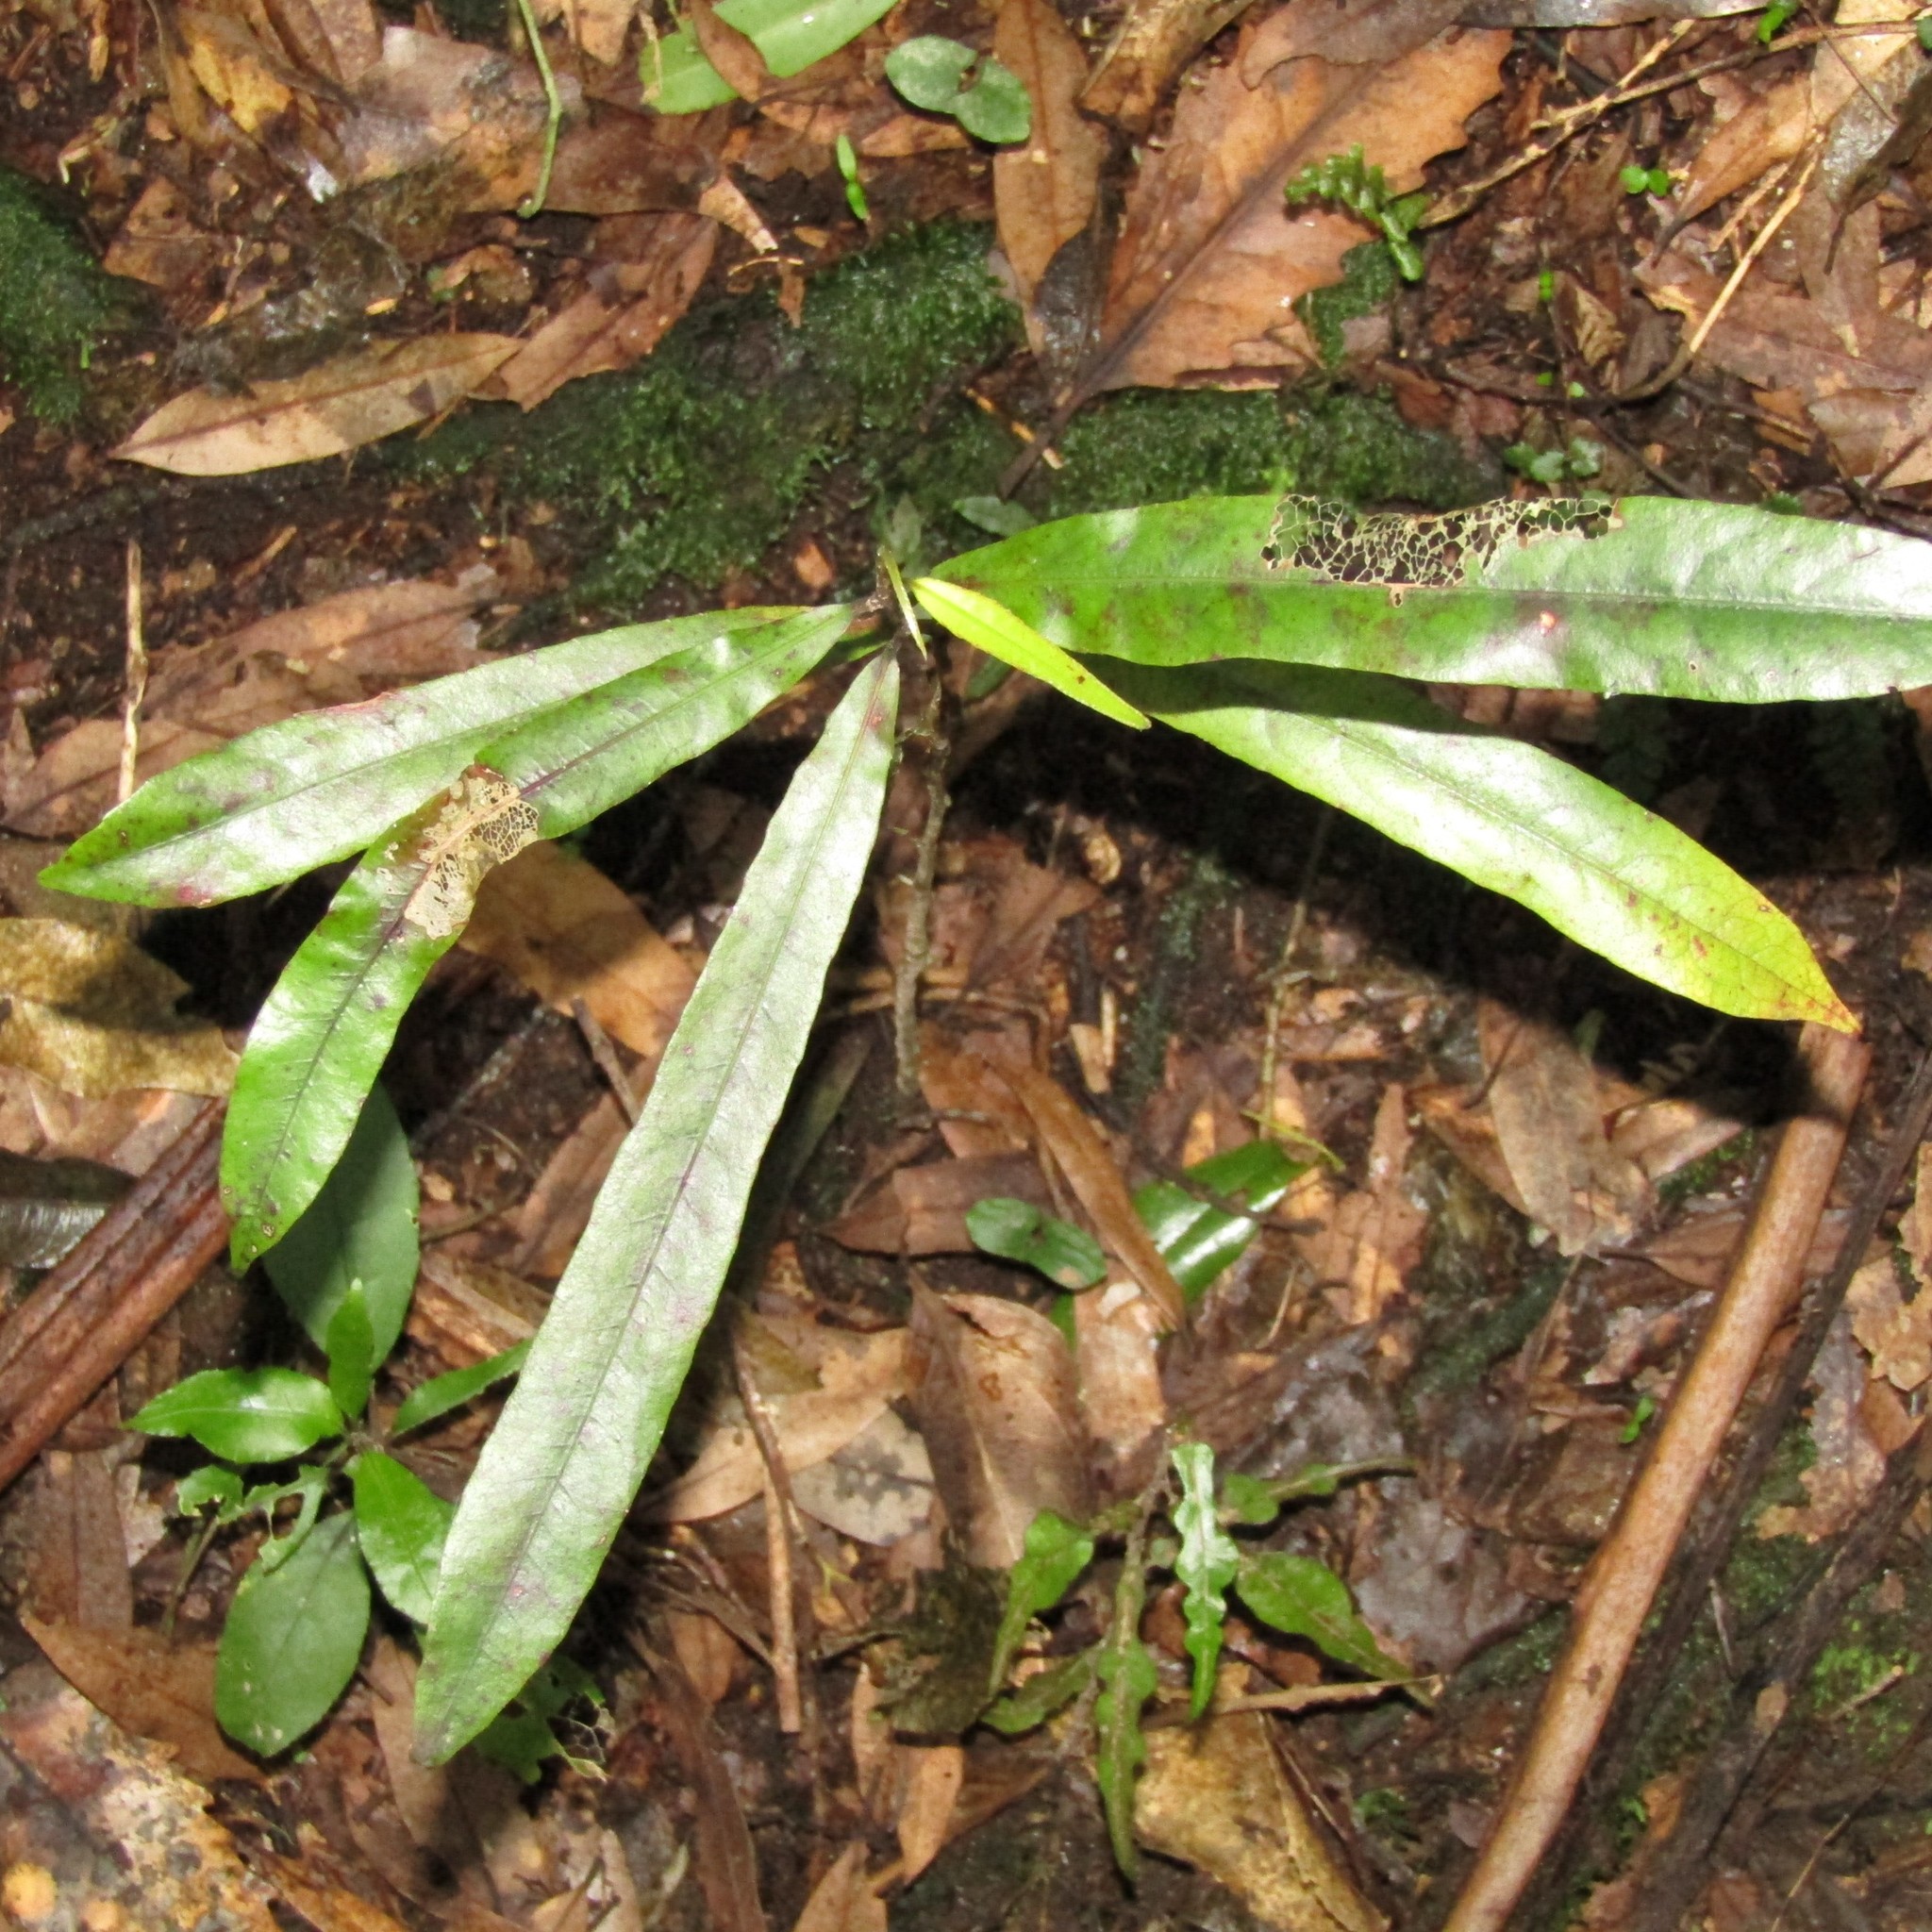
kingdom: Plantae
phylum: Tracheophyta
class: Magnoliopsida
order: Laurales
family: Lauraceae
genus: Beilschmiedia
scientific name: Beilschmiedia tawa
